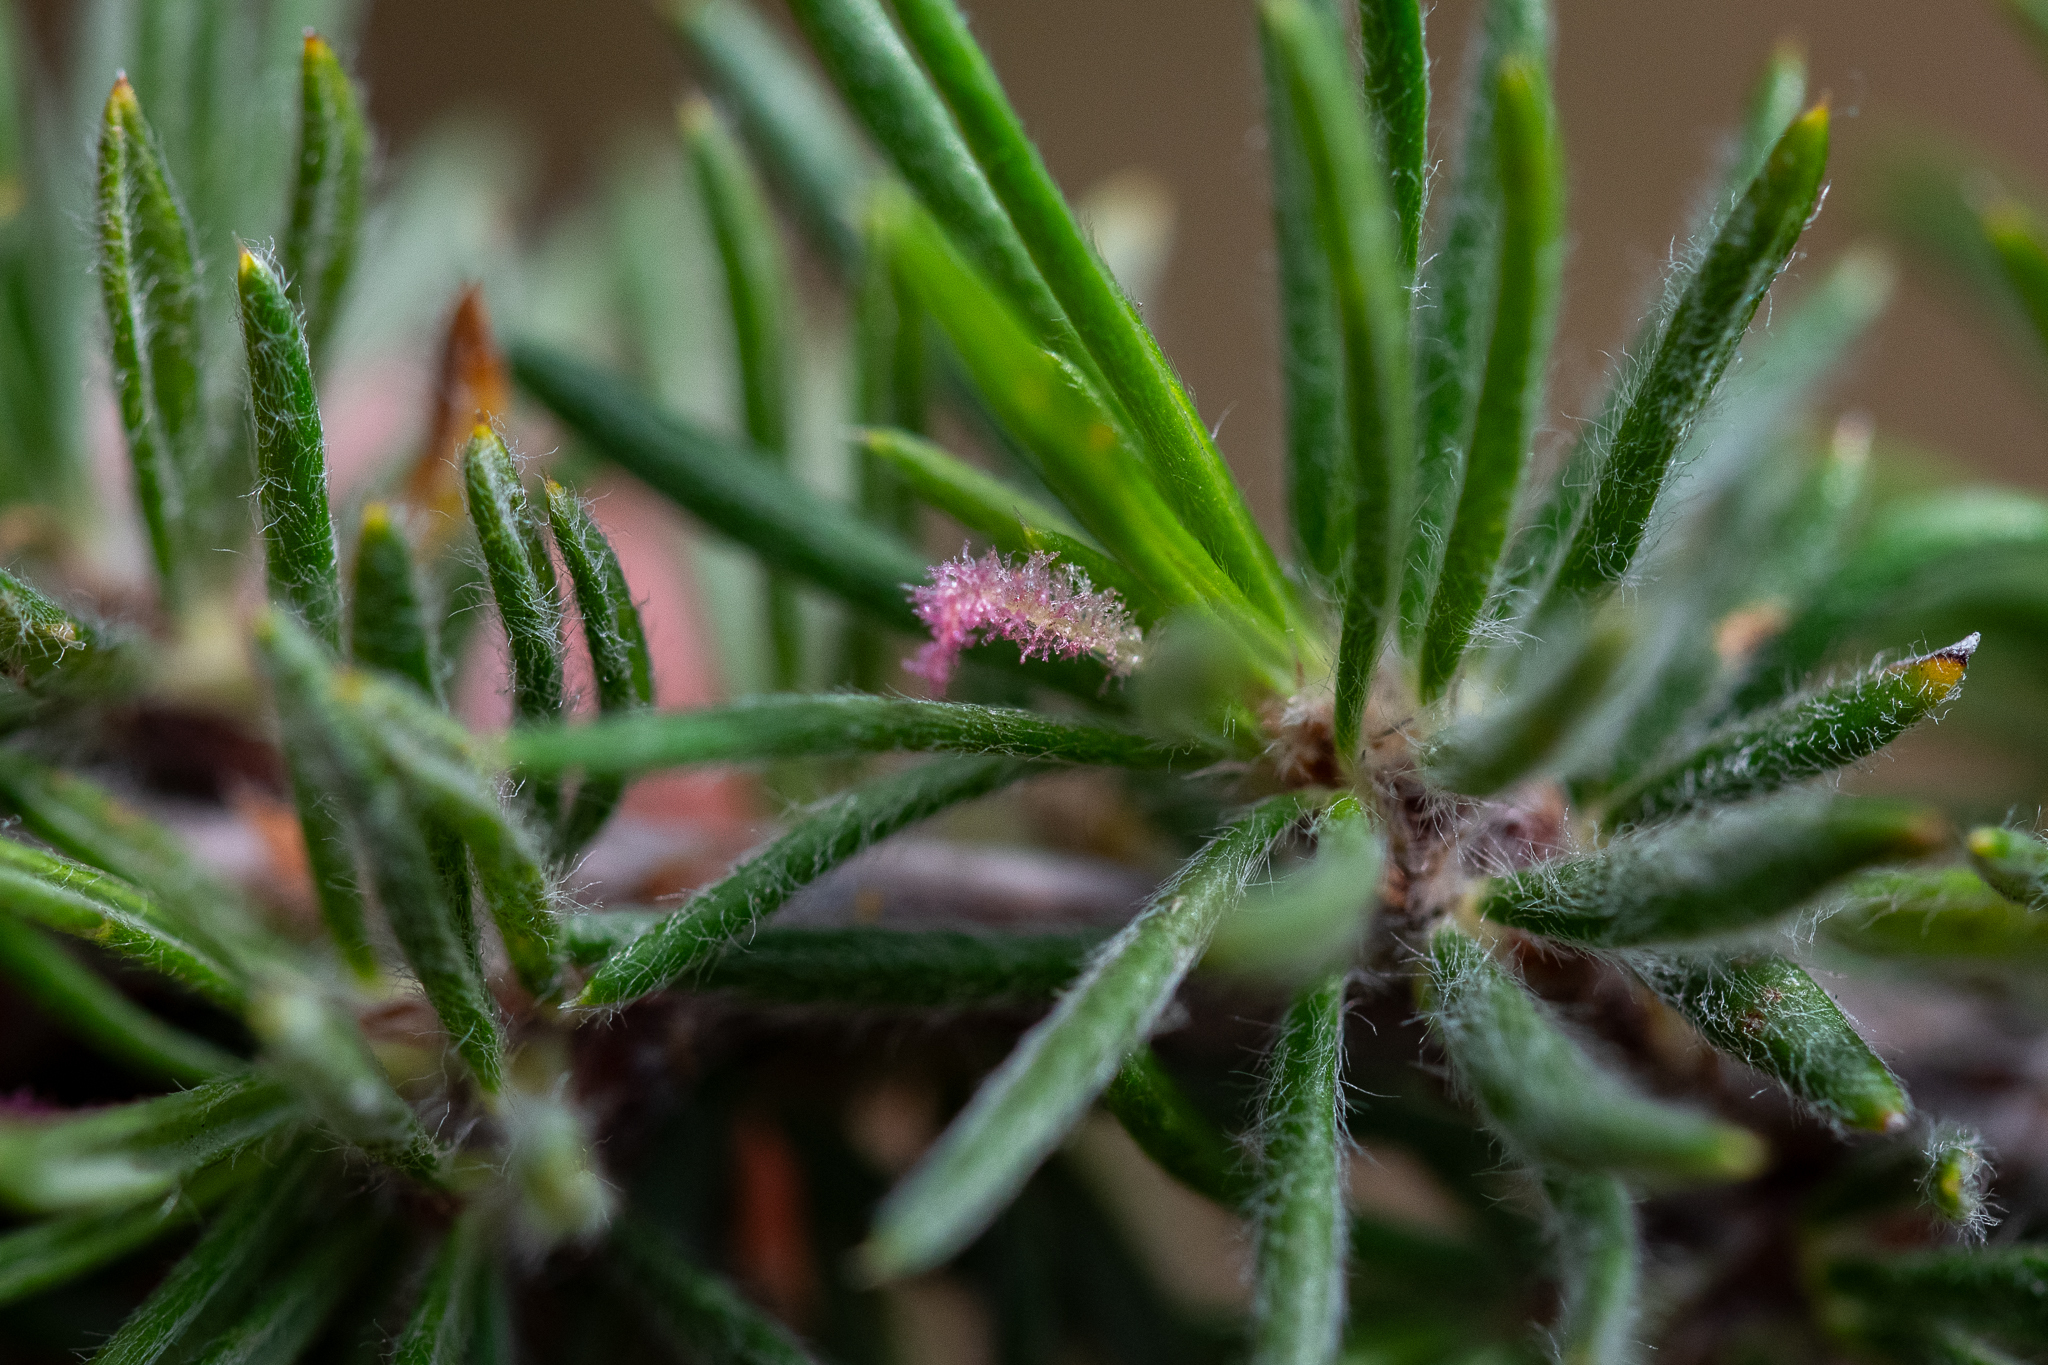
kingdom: Plantae
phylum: Tracheophyta
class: Magnoliopsida
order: Rosales
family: Rosaceae
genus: Cliffortia
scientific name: Cliffortia stricta
